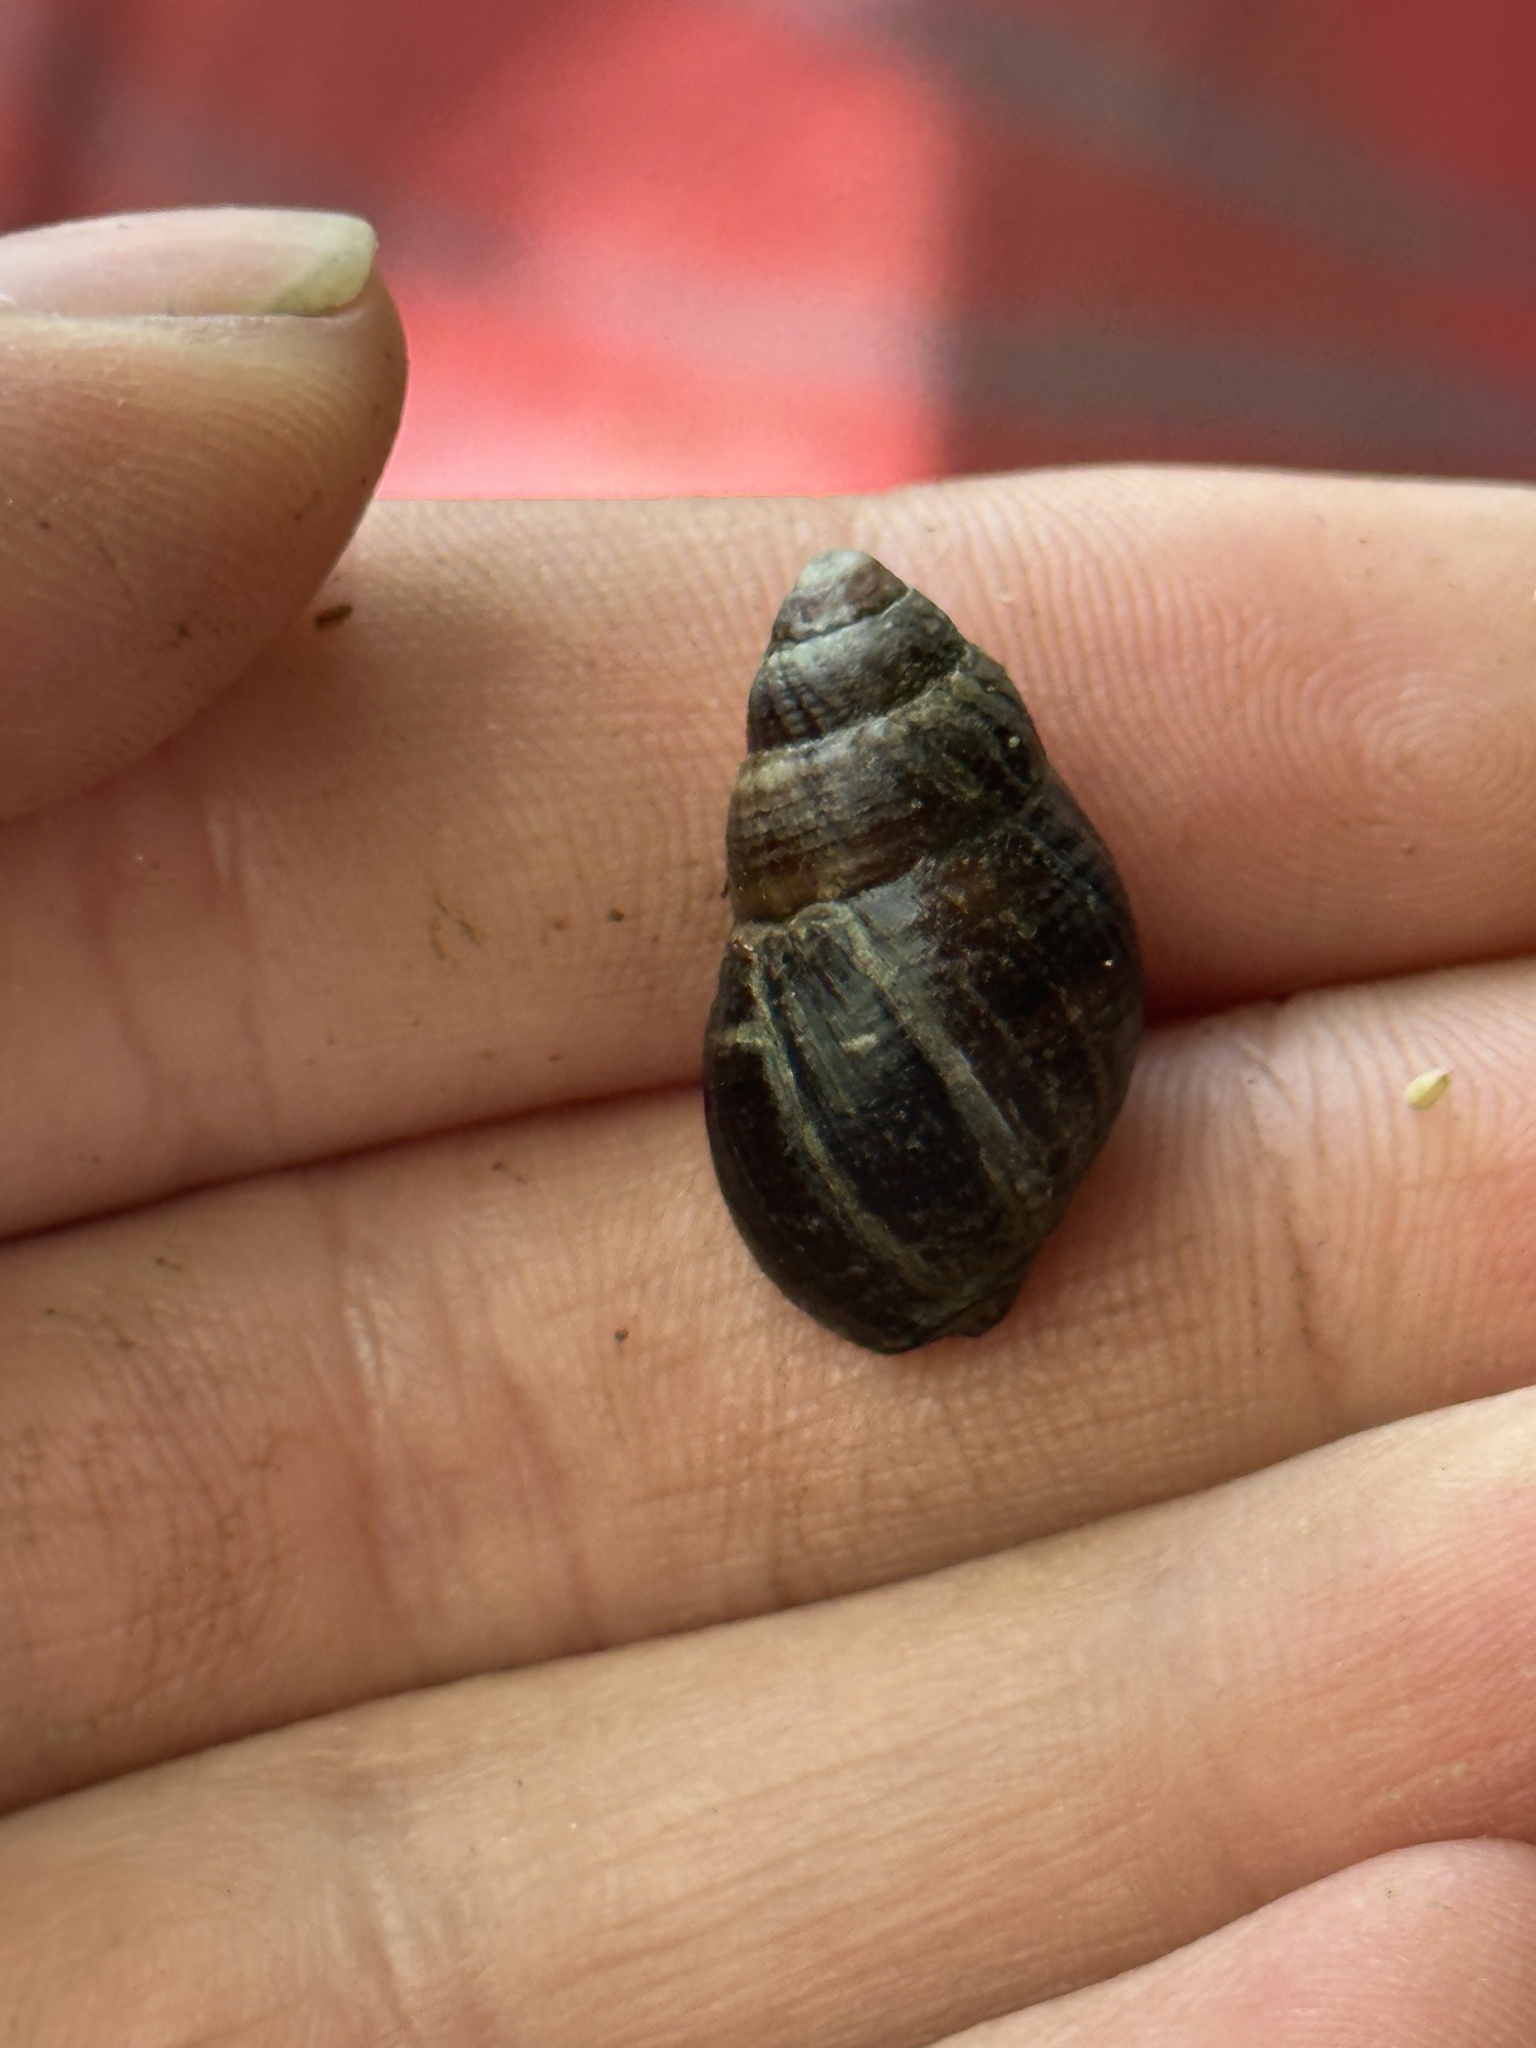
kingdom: Animalia
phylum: Mollusca
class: Gastropoda
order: Neogastropoda
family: Nassariidae
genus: Ilyanassa
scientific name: Ilyanassa obsoleta
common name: Eastern mudsnail
